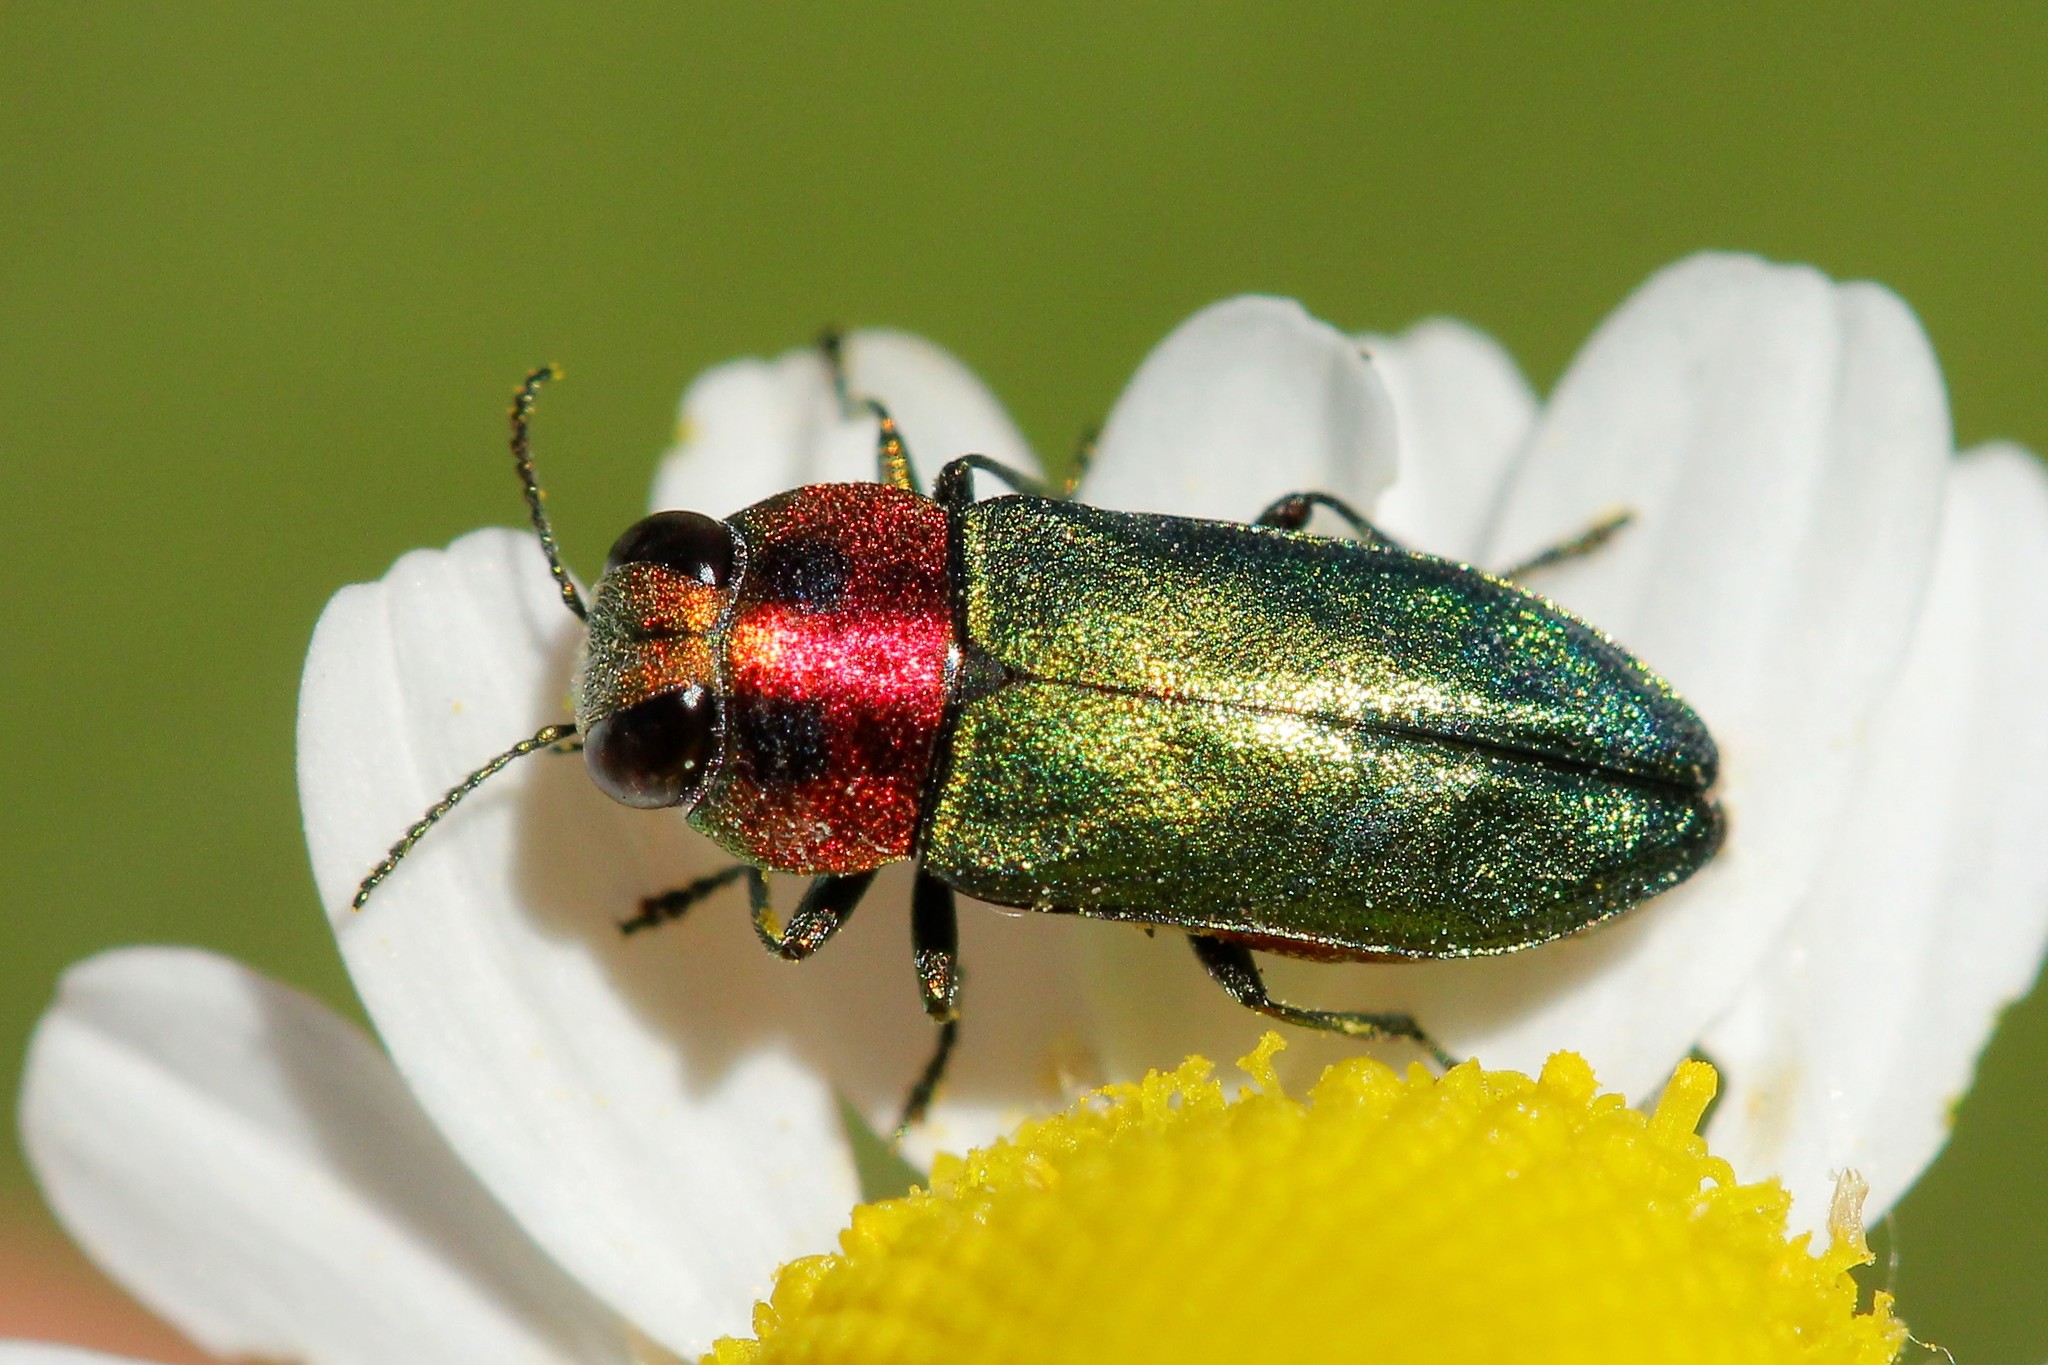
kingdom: Animalia
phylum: Arthropoda
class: Insecta
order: Coleoptera
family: Buprestidae
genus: Anthaxia
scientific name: Anthaxia nitidula
